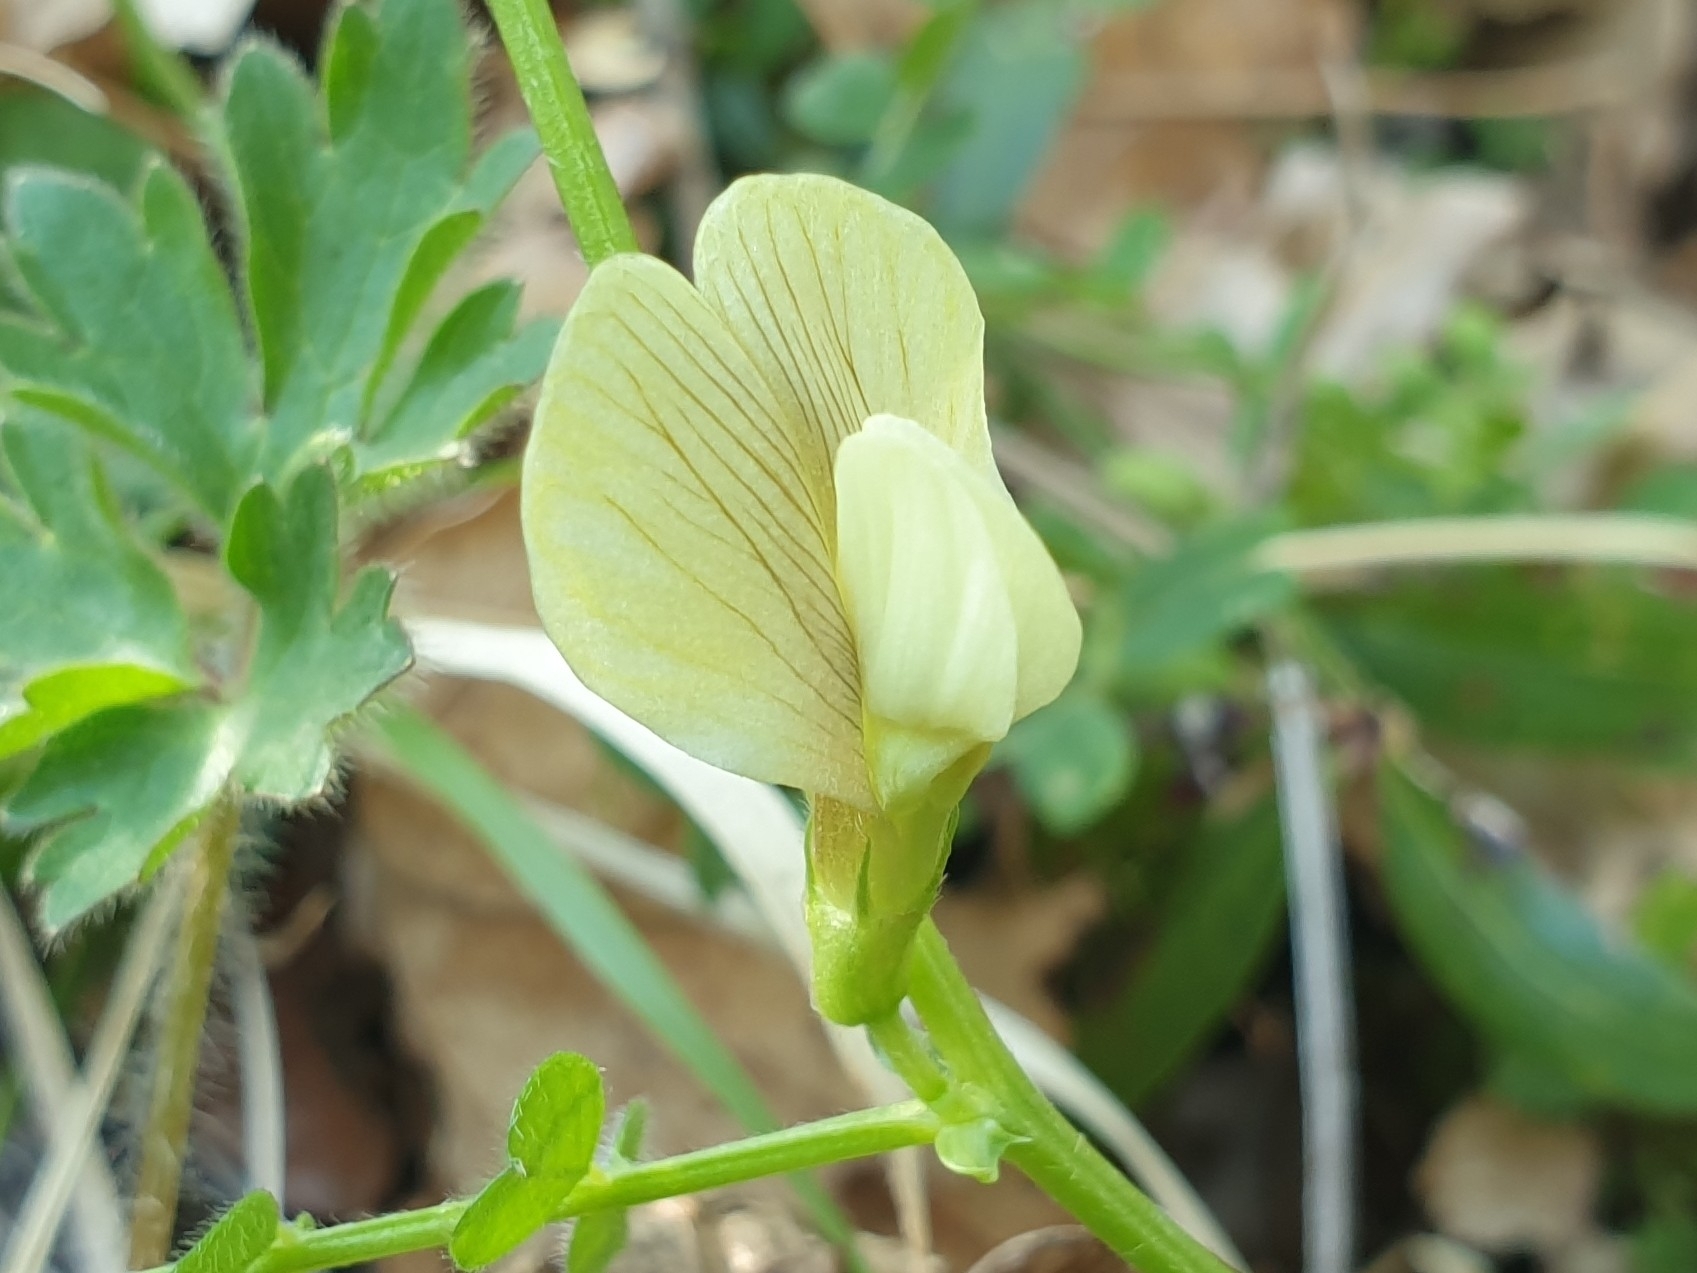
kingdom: Plantae
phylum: Tracheophyta
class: Magnoliopsida
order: Fabales
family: Fabaceae
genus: Vicia
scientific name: Vicia hybrida
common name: Hairy yellow vetch
